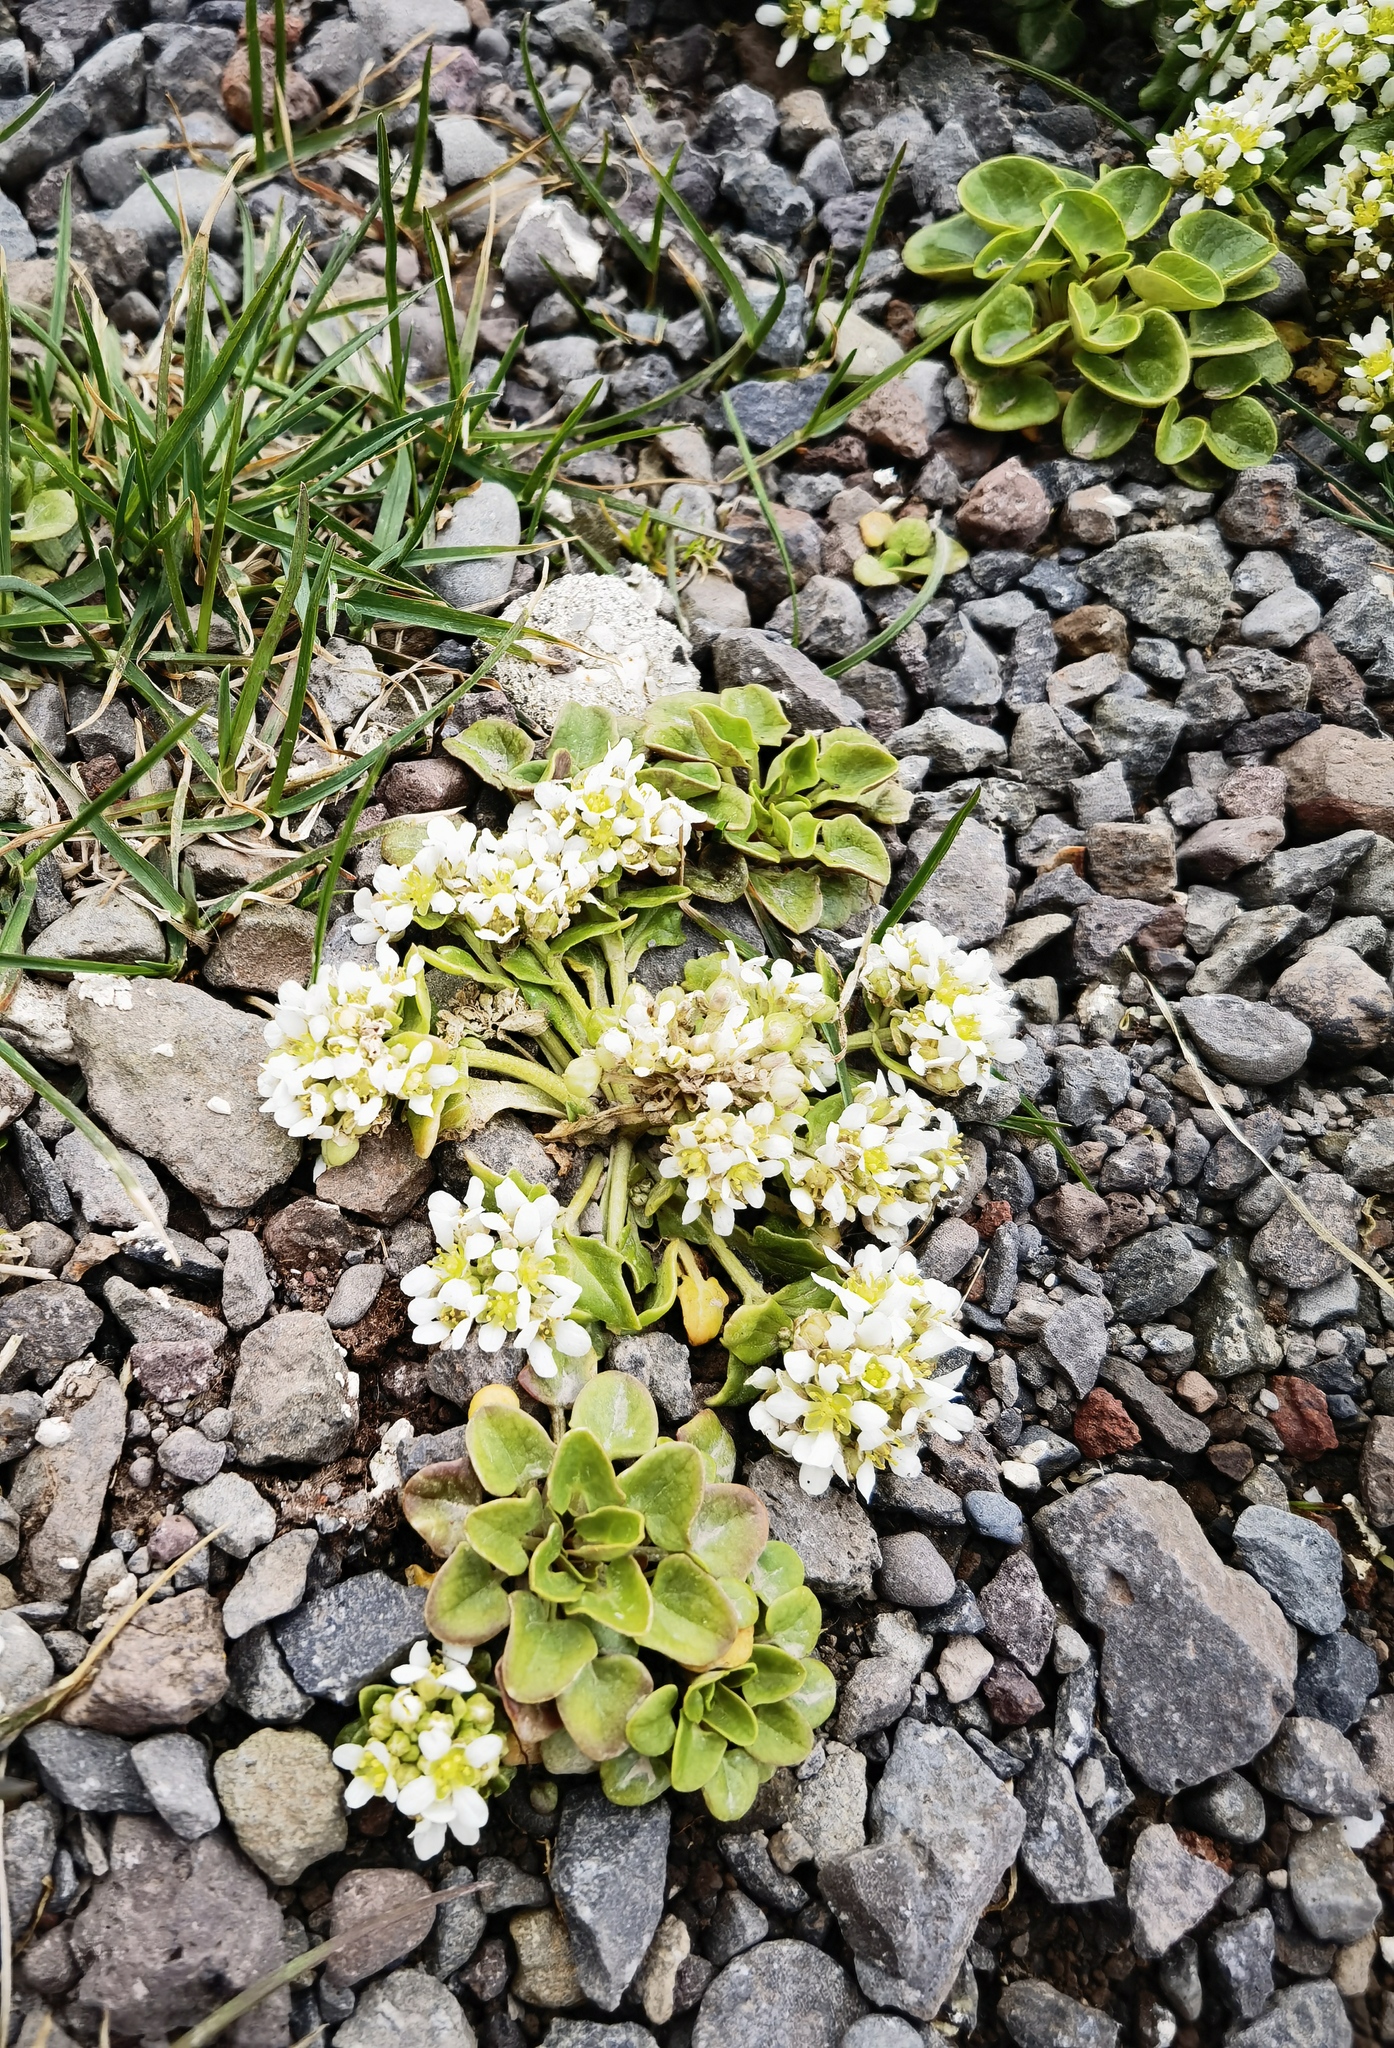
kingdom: Plantae
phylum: Tracheophyta
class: Magnoliopsida
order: Brassicales
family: Brassicaceae
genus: Cochlearia
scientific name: Cochlearia officinalis
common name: Scurvy-grass
